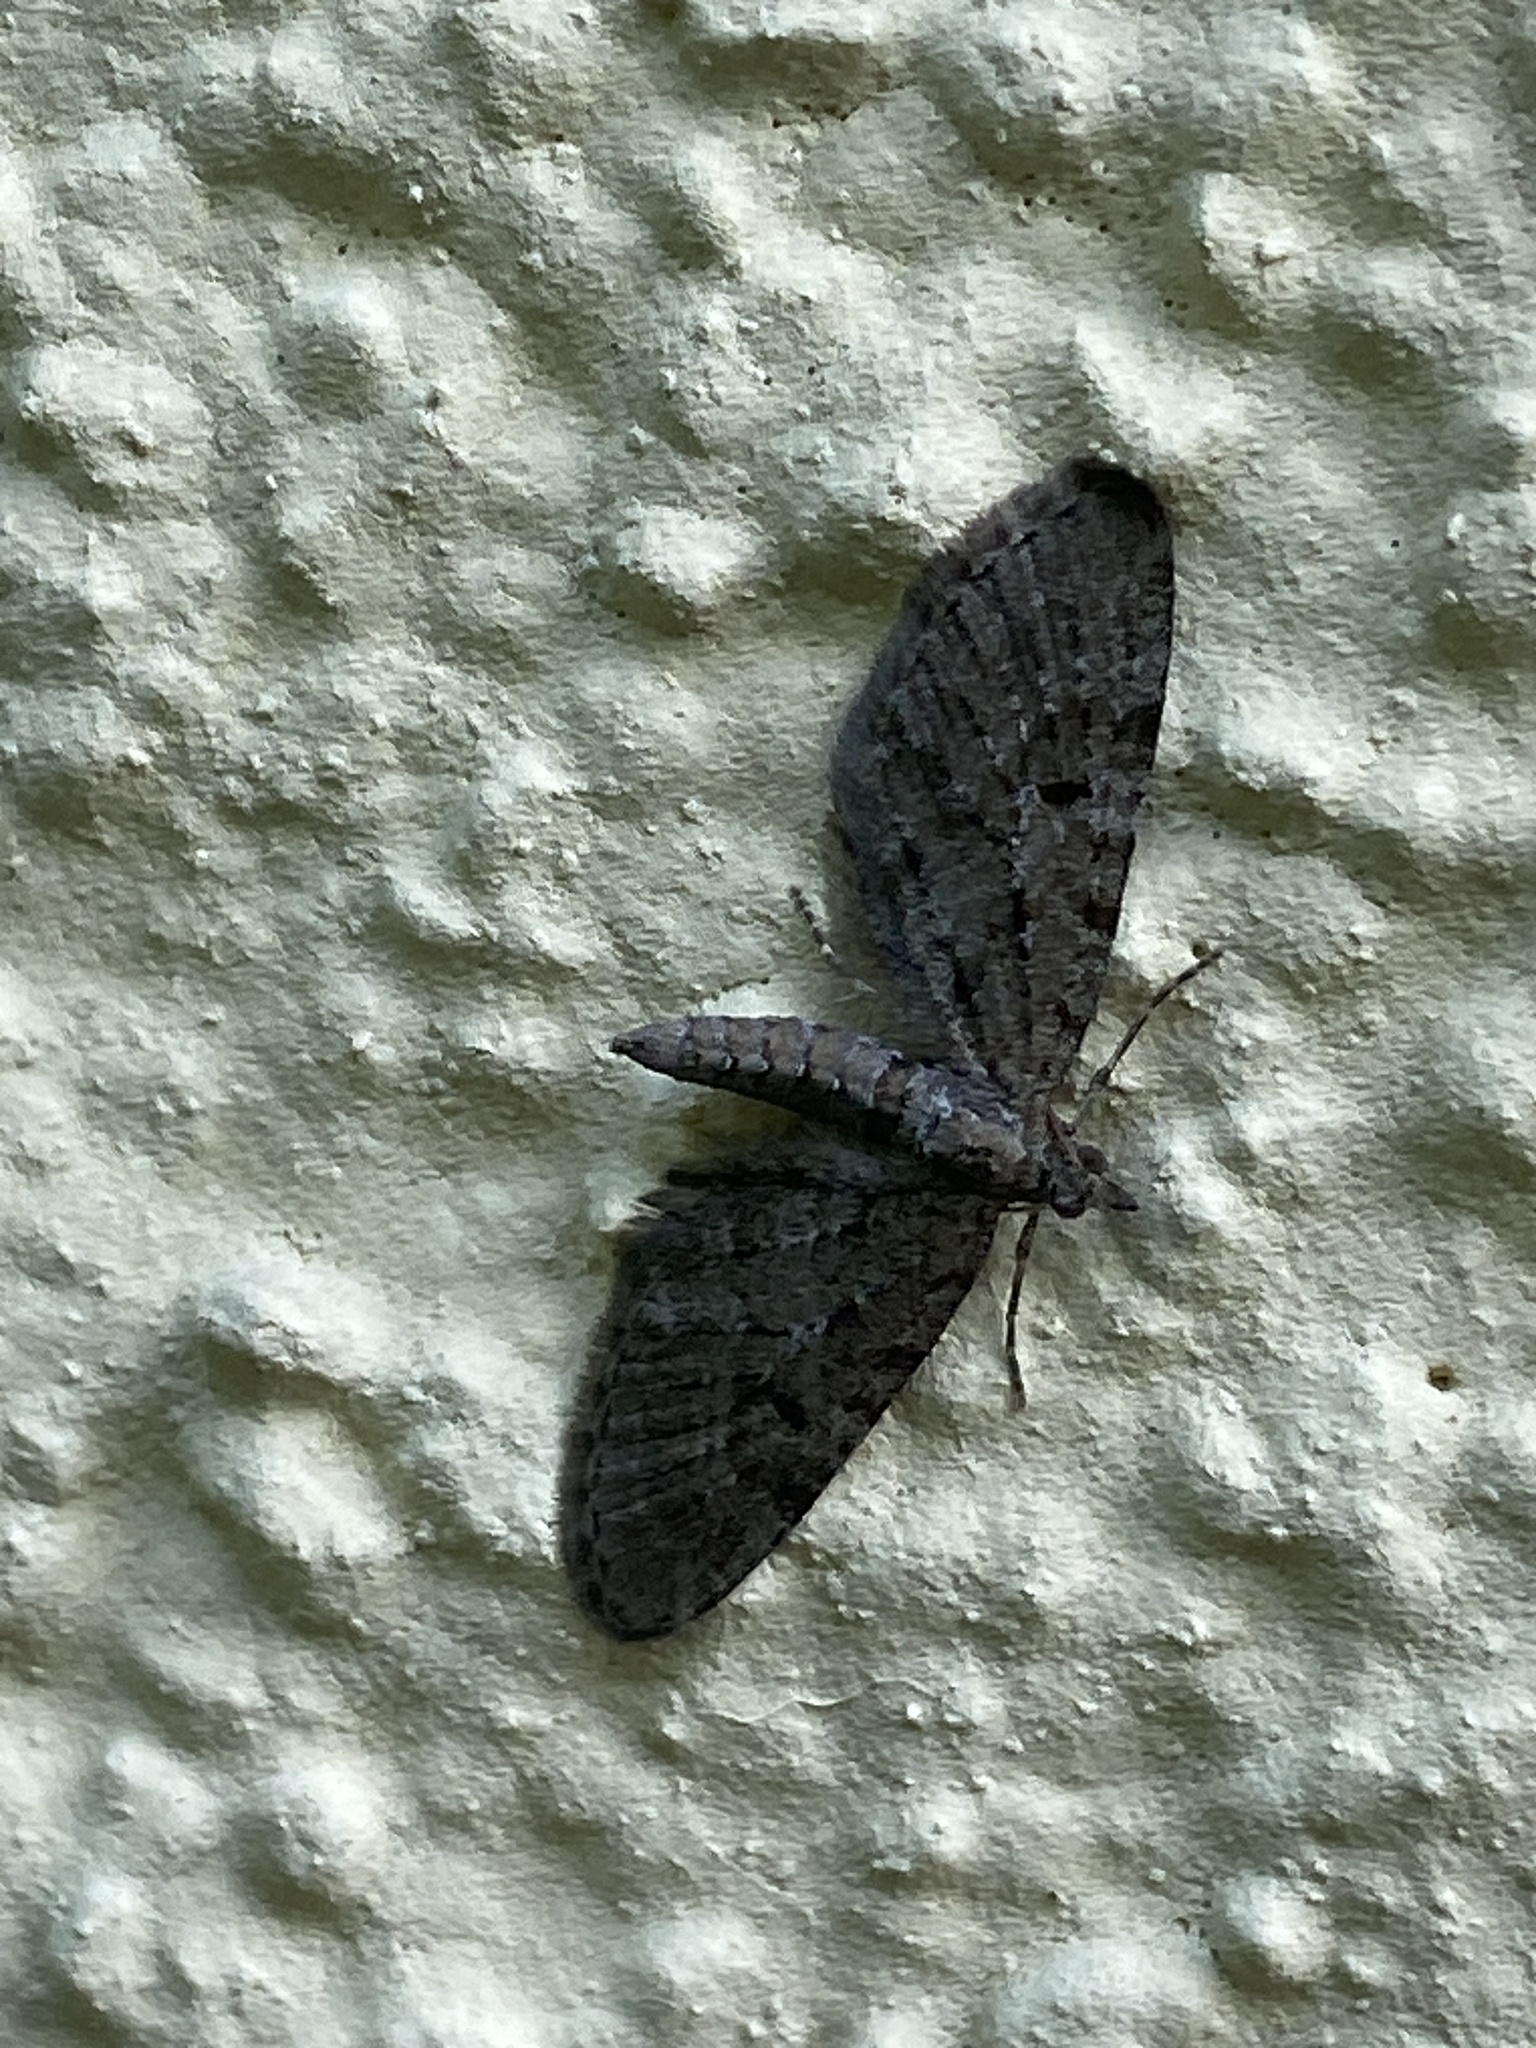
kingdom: Animalia
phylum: Arthropoda
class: Insecta
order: Lepidoptera
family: Geometridae
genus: Eupithecia
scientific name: Eupithecia intricata
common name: Freyers pug
